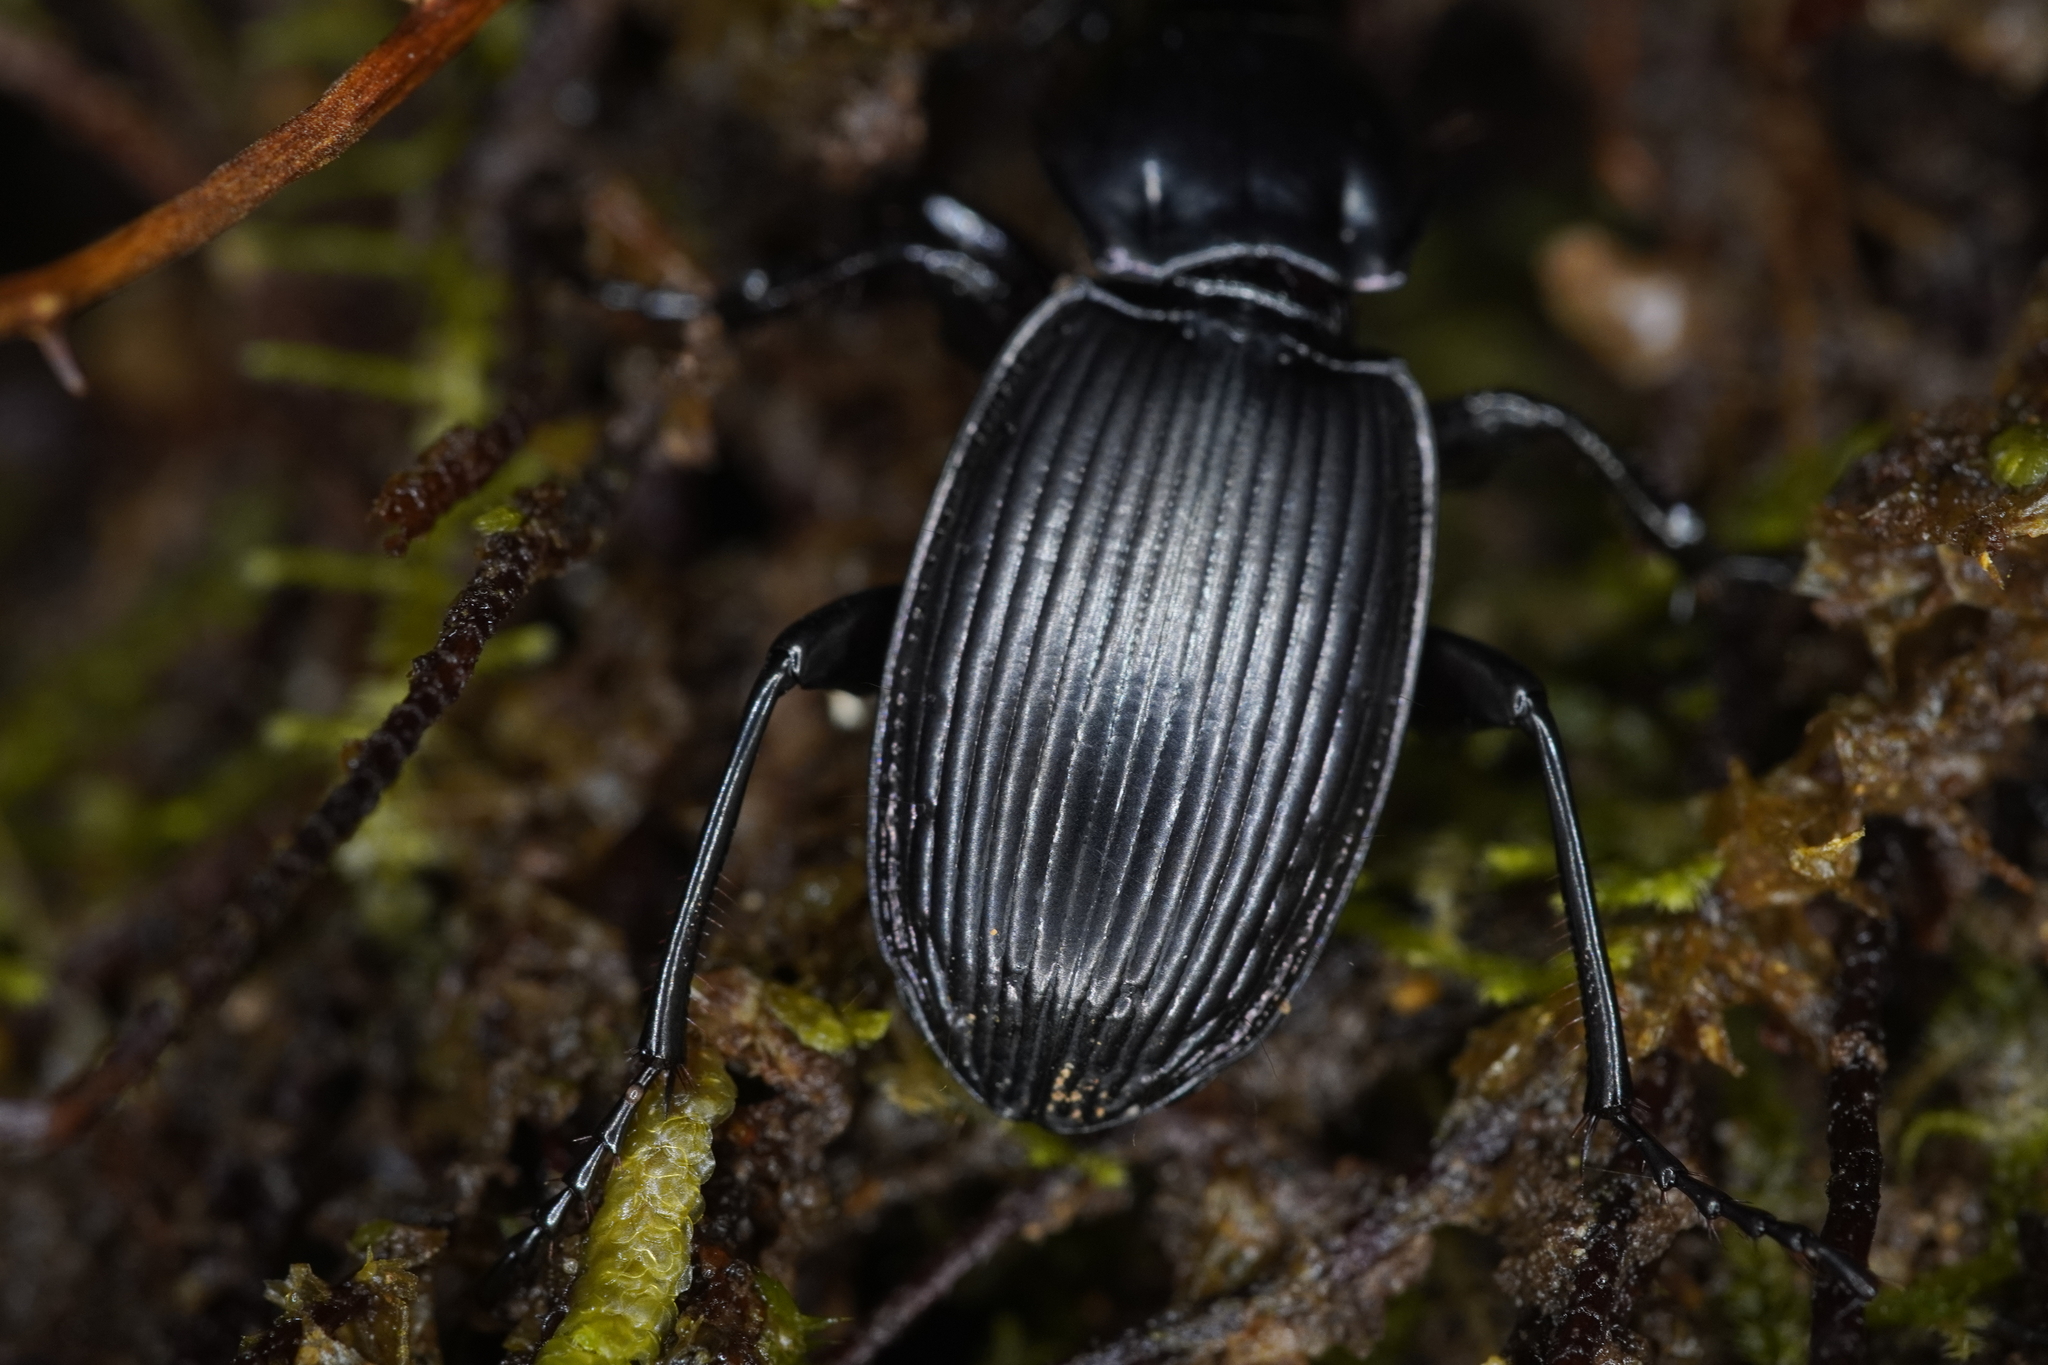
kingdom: Animalia
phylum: Arthropoda
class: Insecta
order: Coleoptera
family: Carabidae
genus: Megadromus
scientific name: Megadromus vigil
